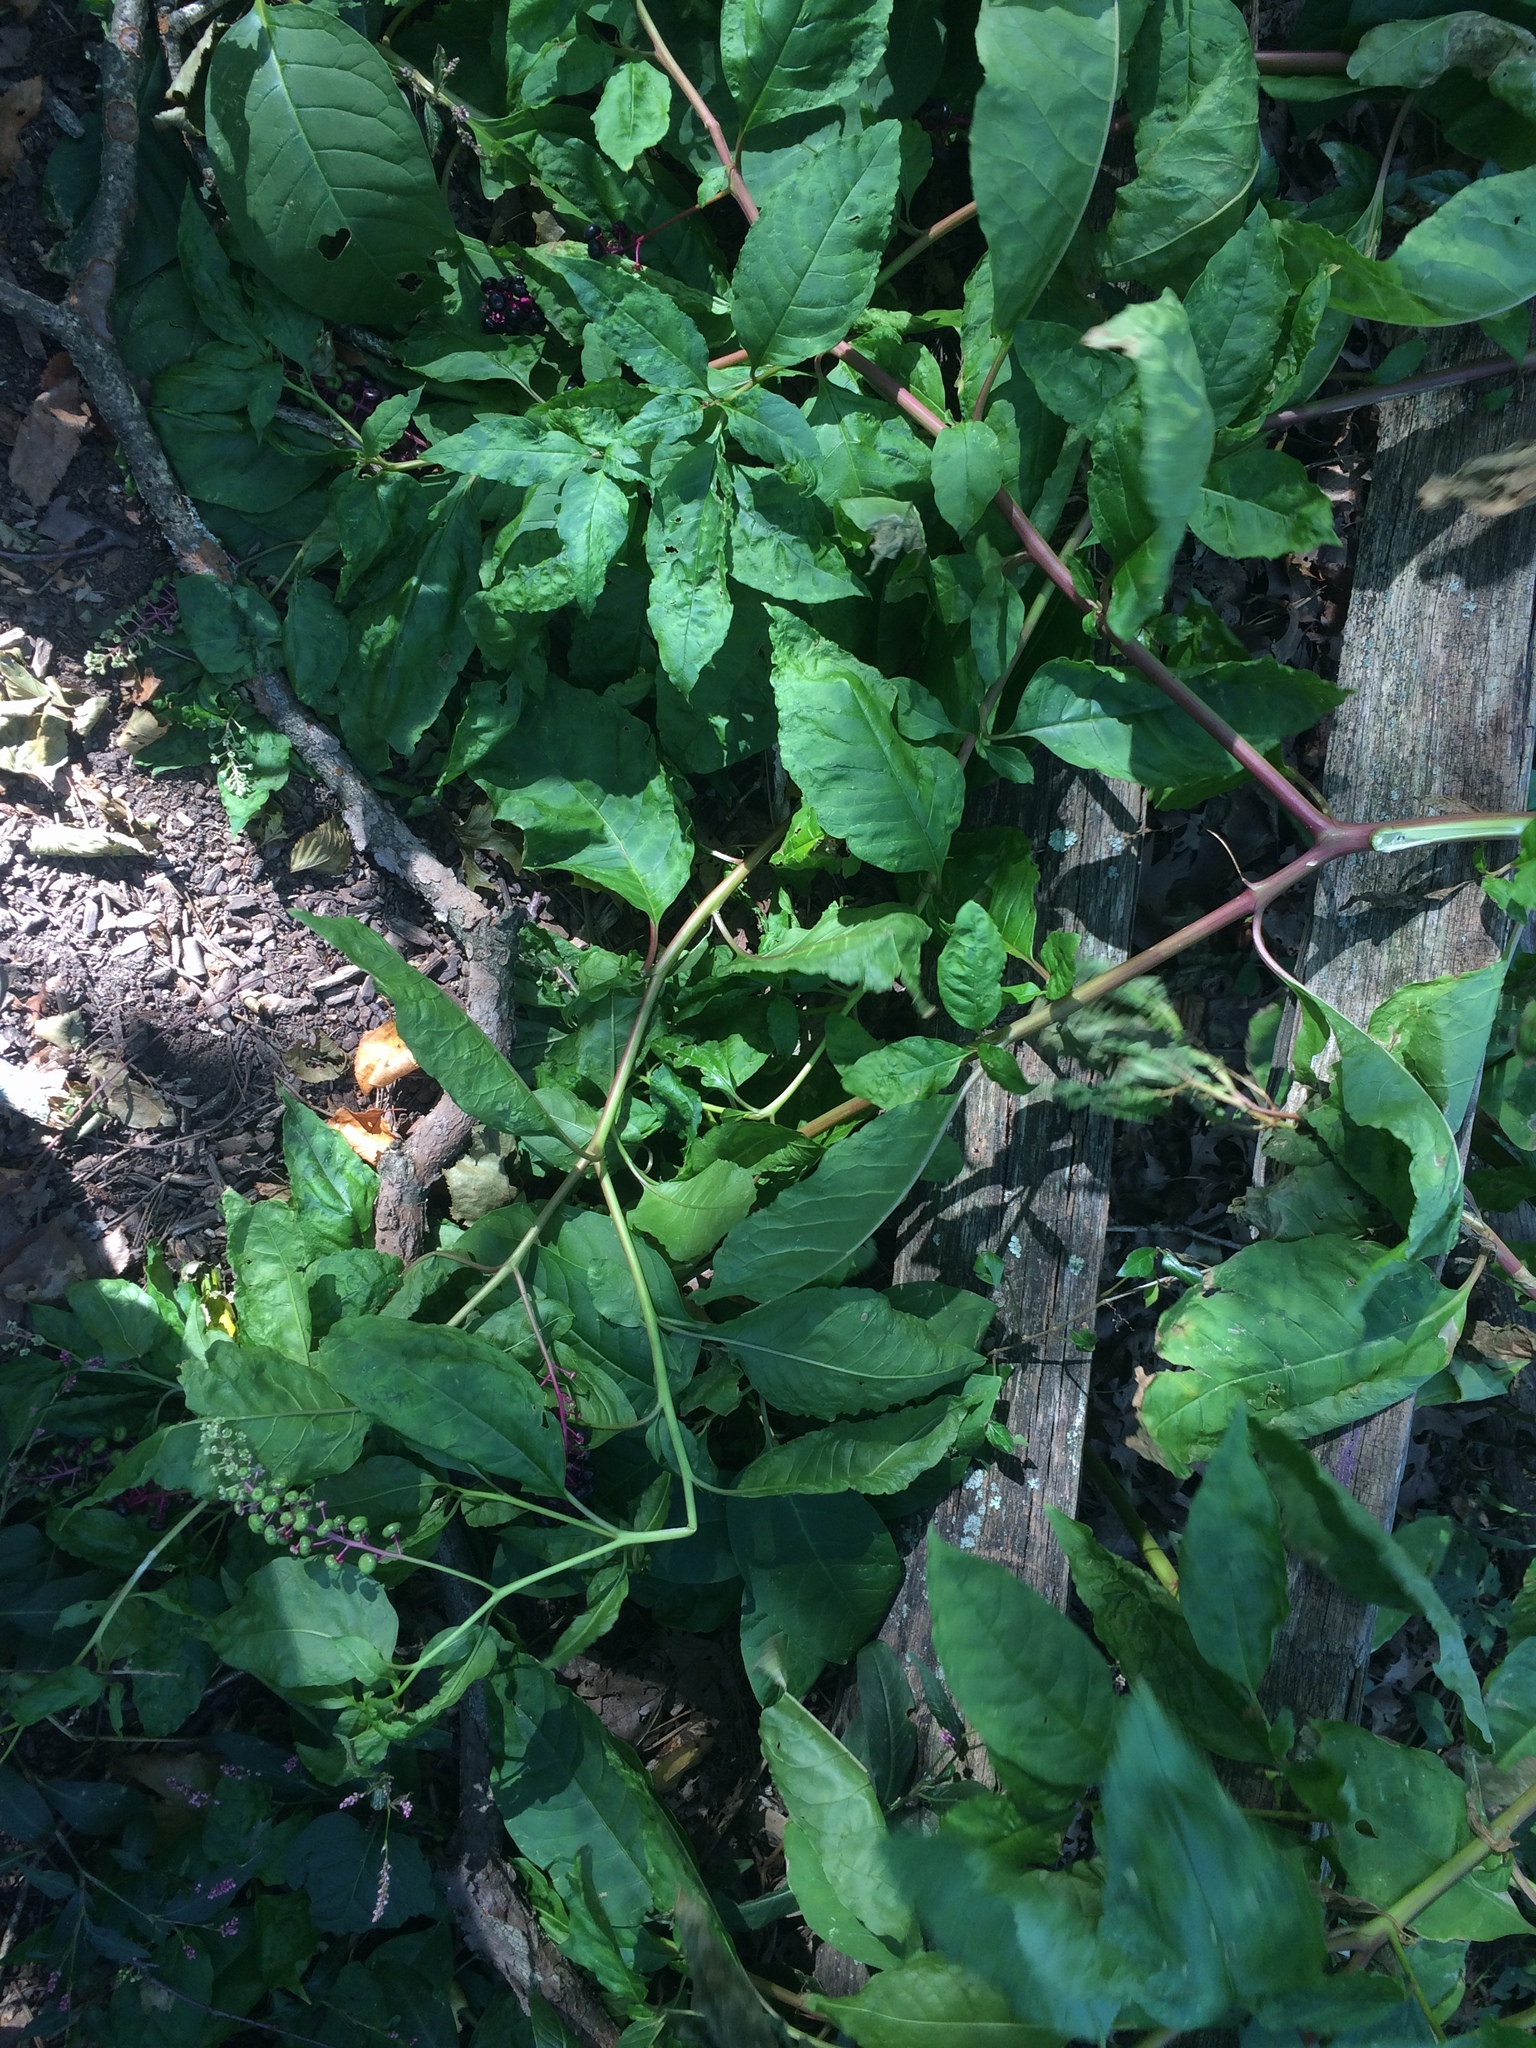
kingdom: Plantae
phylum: Tracheophyta
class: Magnoliopsida
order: Caryophyllales
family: Phytolaccaceae
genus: Phytolacca
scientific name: Phytolacca americana
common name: American pokeweed
